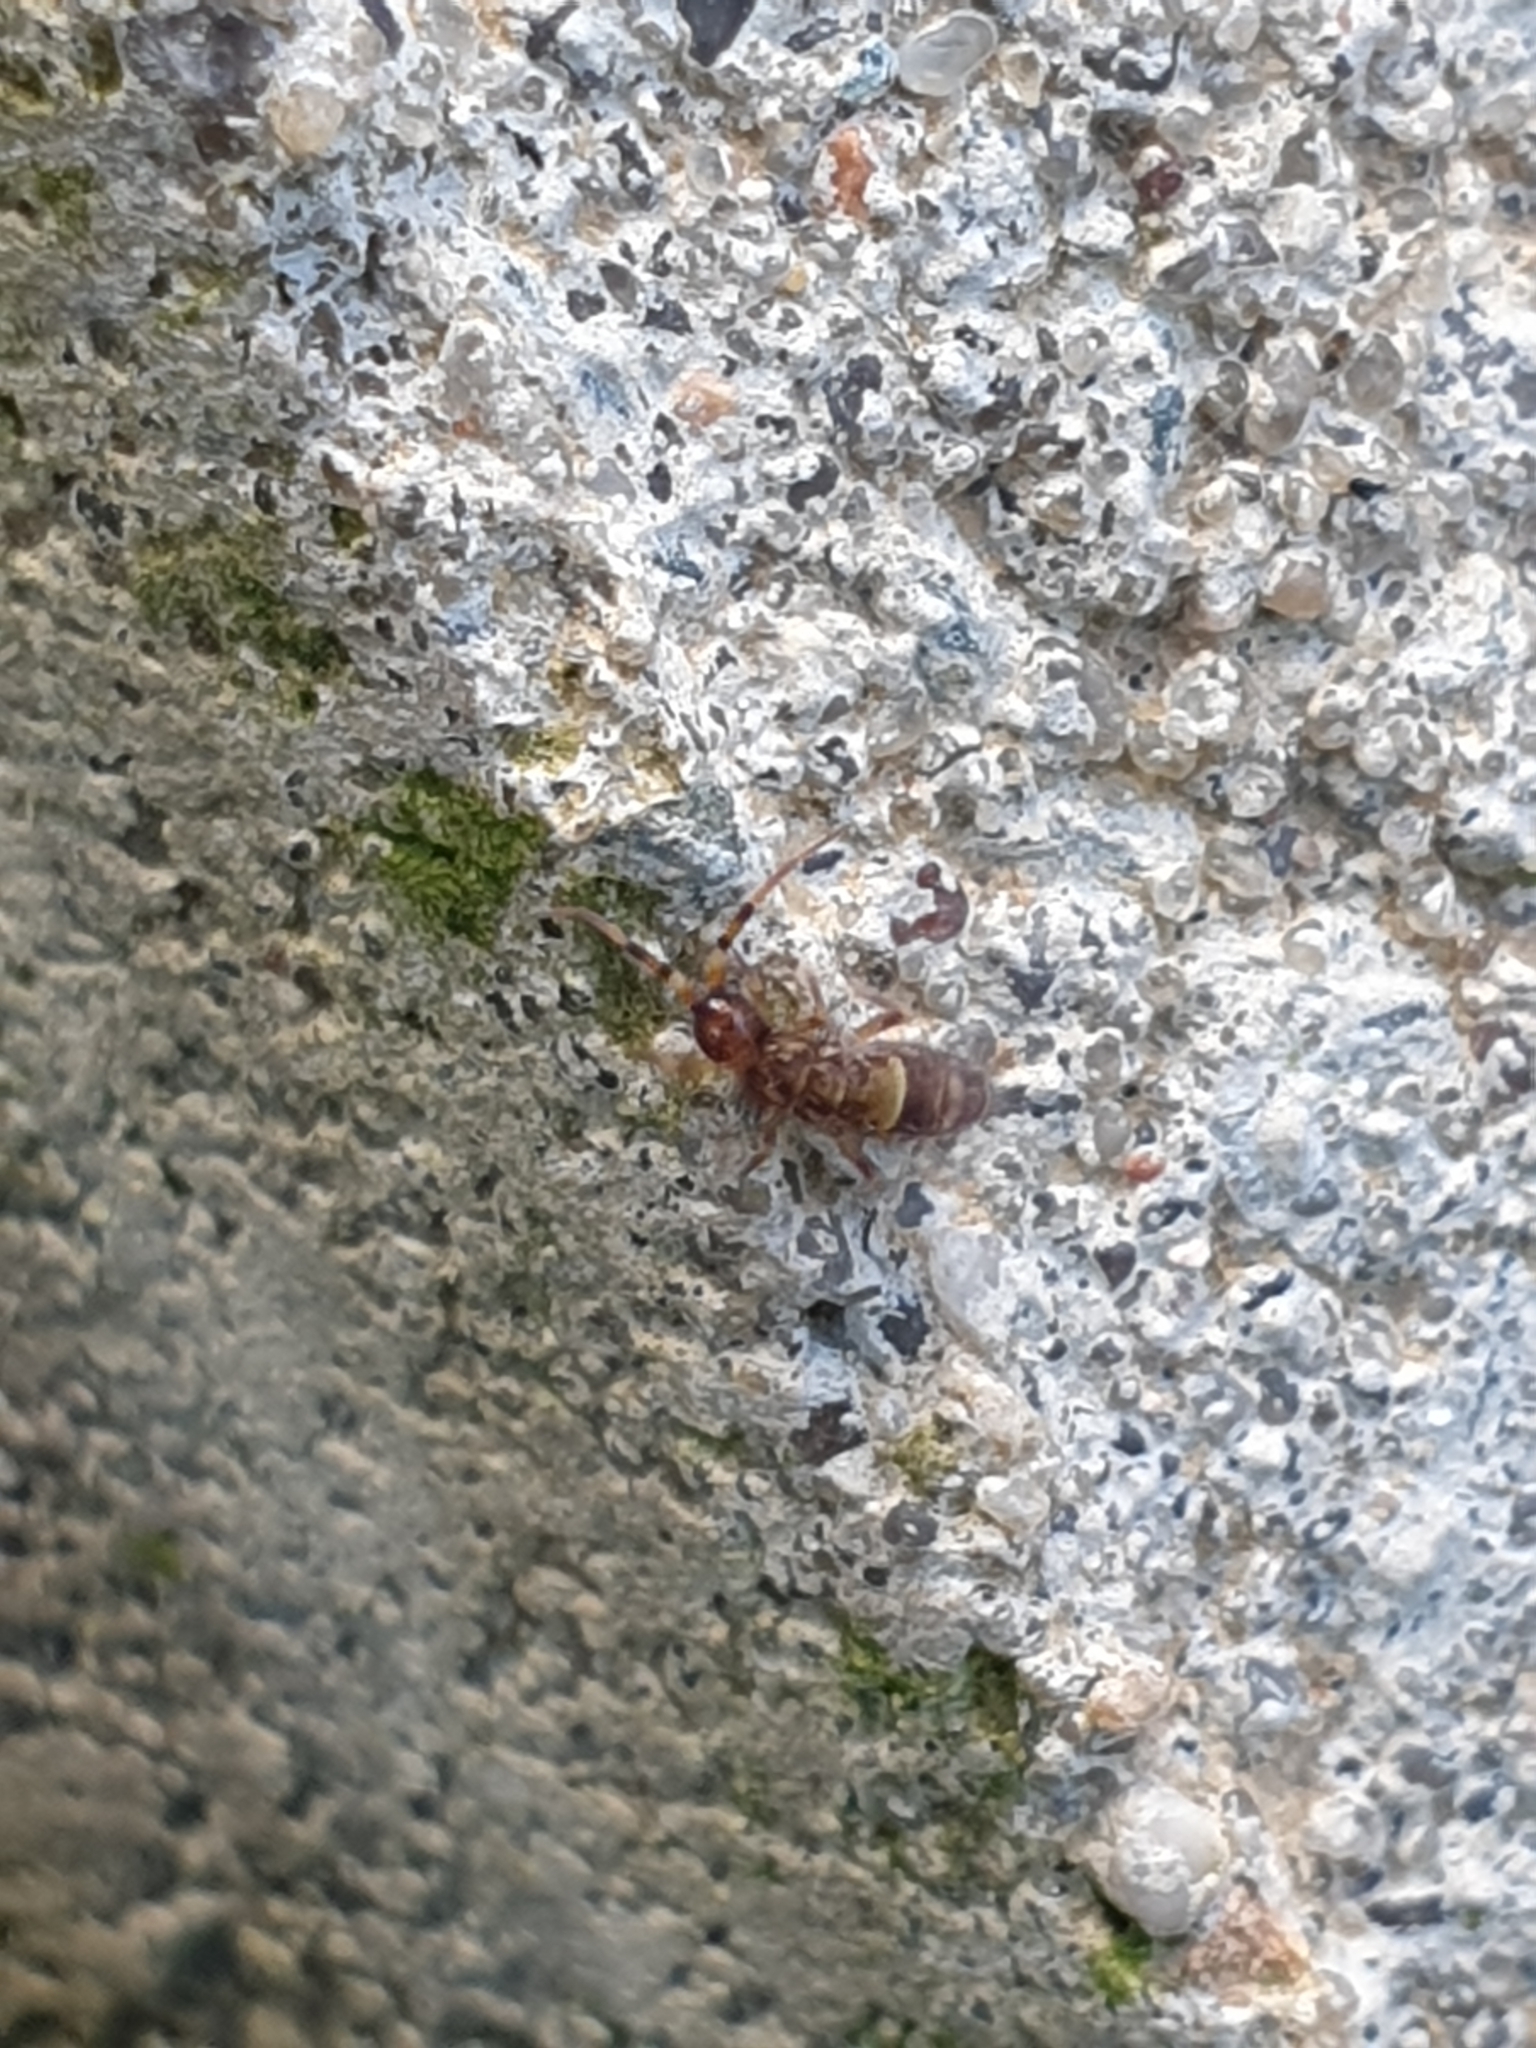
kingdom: Animalia
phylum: Arthropoda
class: Collembola
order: Entomobryomorpha
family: Orchesellidae
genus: Orchesella
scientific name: Orchesella cincta
